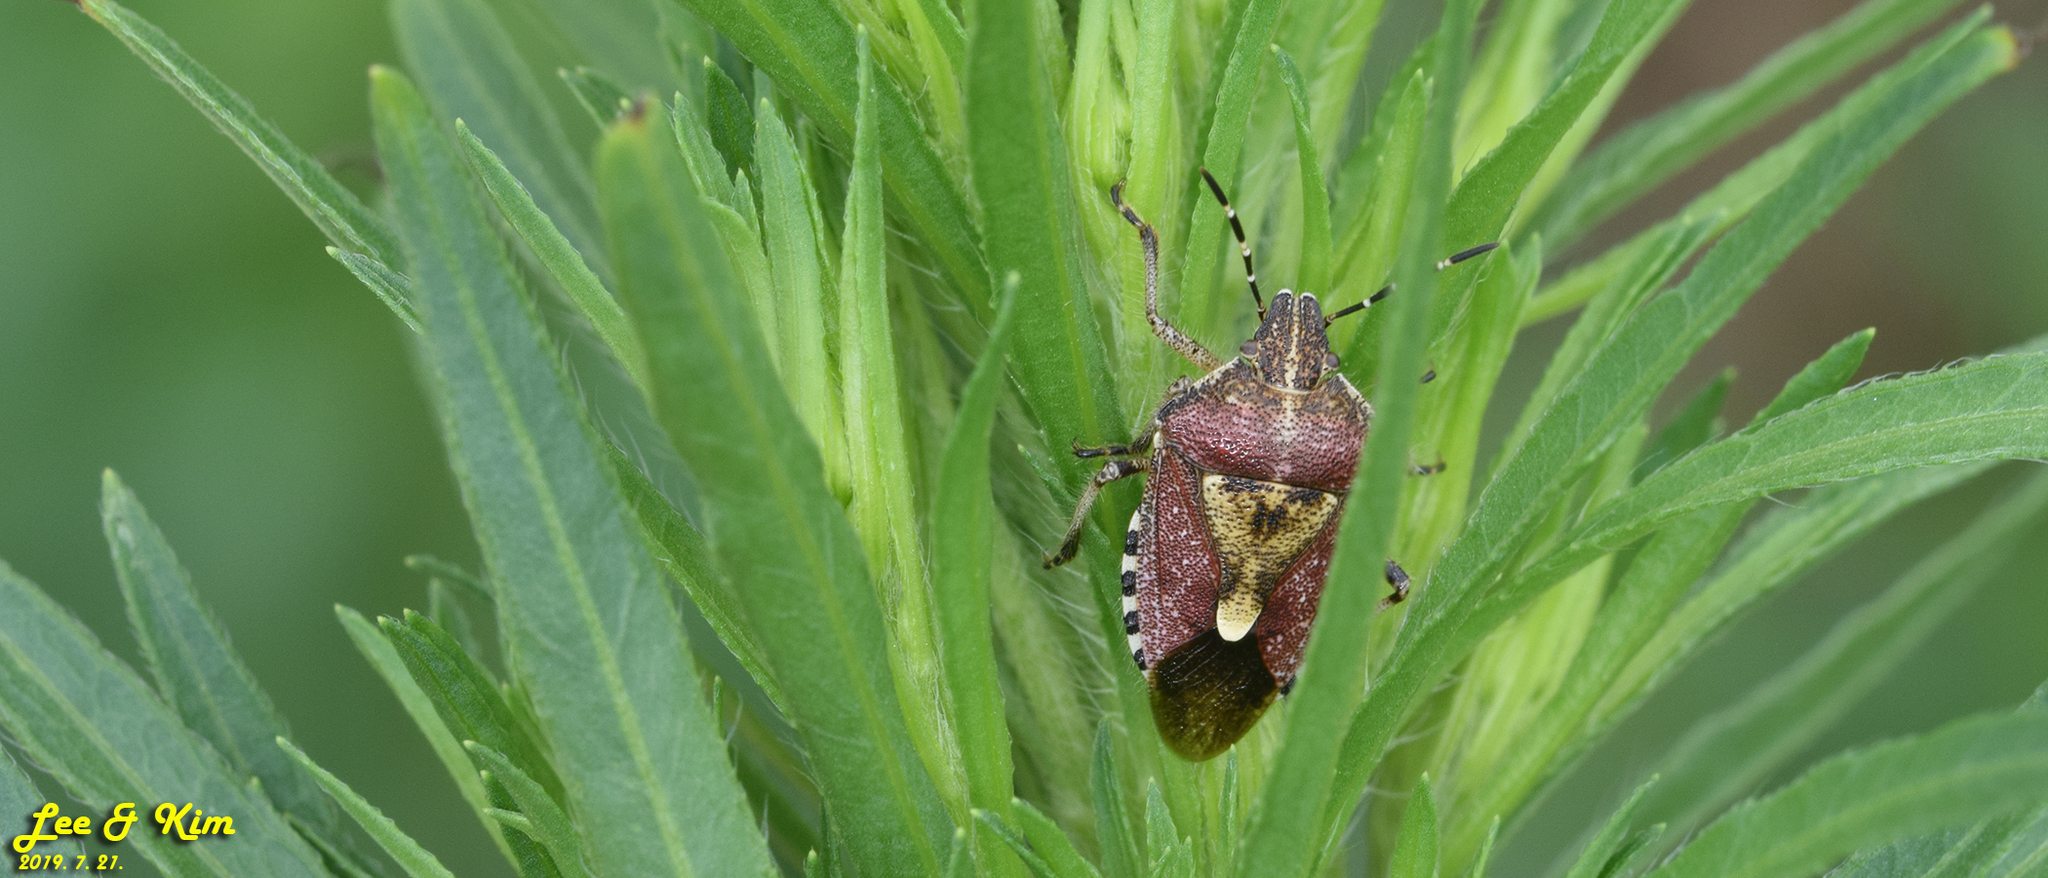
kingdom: Animalia
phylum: Arthropoda
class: Insecta
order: Hemiptera
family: Pentatomidae
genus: Dolycoris
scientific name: Dolycoris baccarum
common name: Sloe bug
